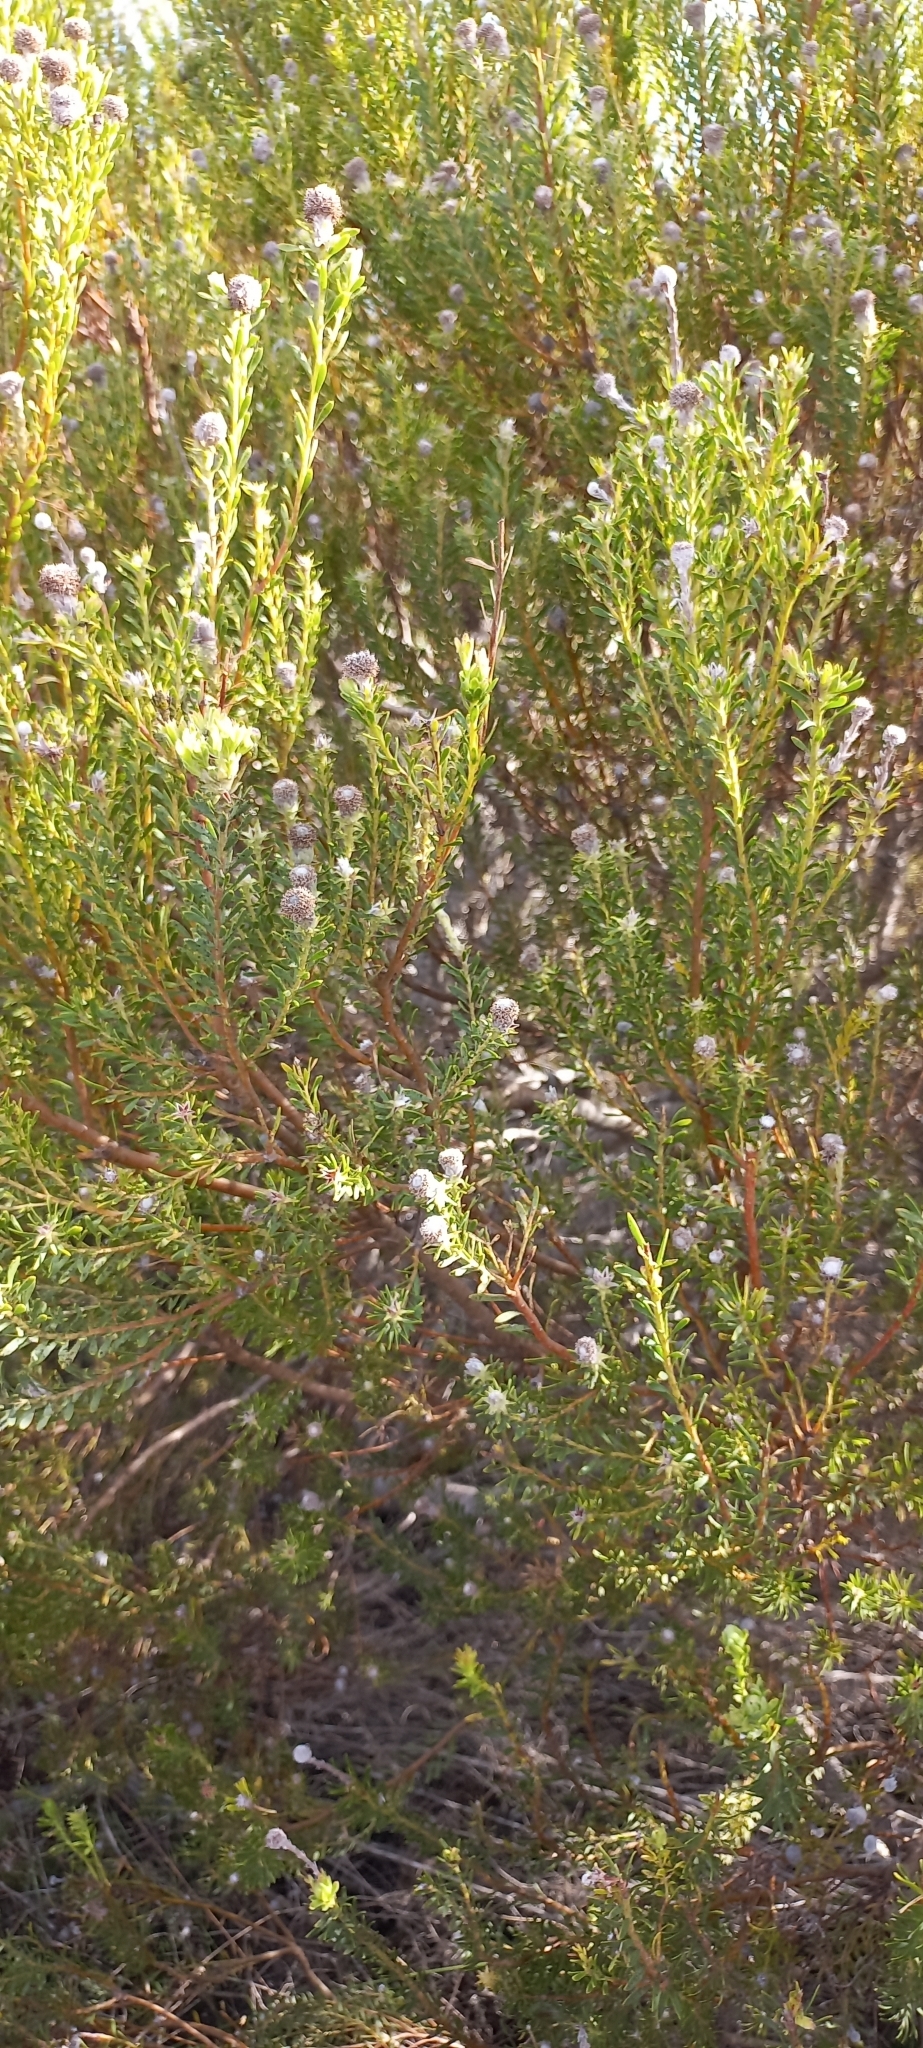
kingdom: Plantae
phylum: Tracheophyta
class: Magnoliopsida
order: Proteales
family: Proteaceae
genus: Leucadendron
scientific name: Leucadendron linifolium
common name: Line-leaf conebush
